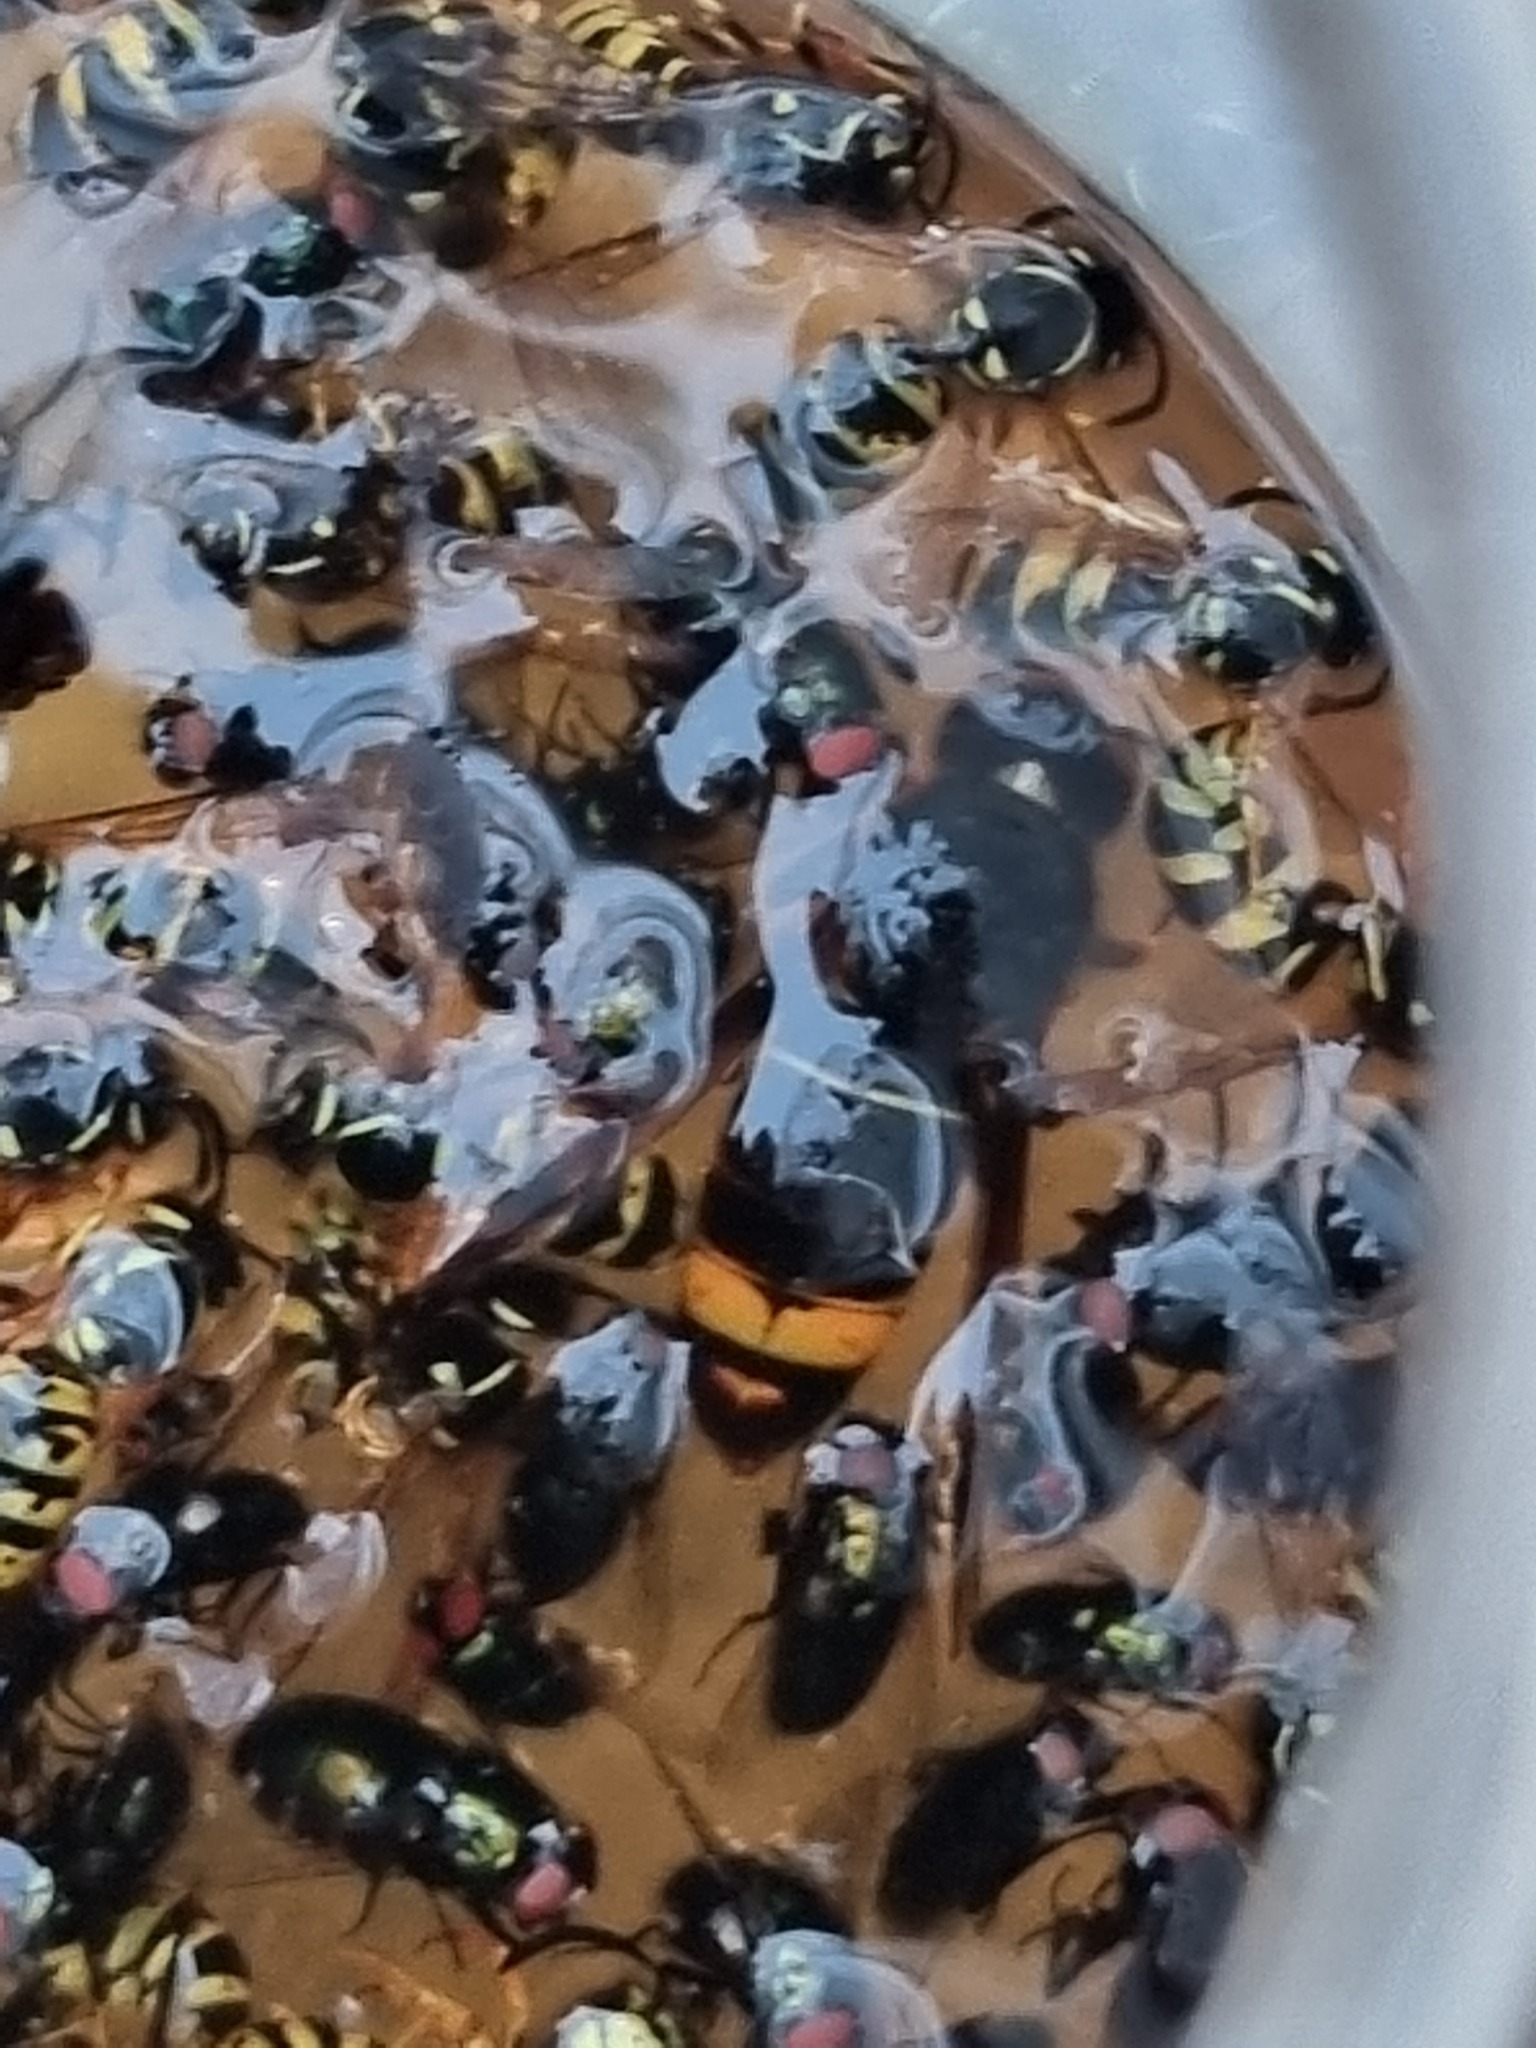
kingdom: Animalia
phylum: Arthropoda
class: Insecta
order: Hymenoptera
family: Vespidae
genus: Vespa
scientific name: Vespa velutina
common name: Asian hornet
